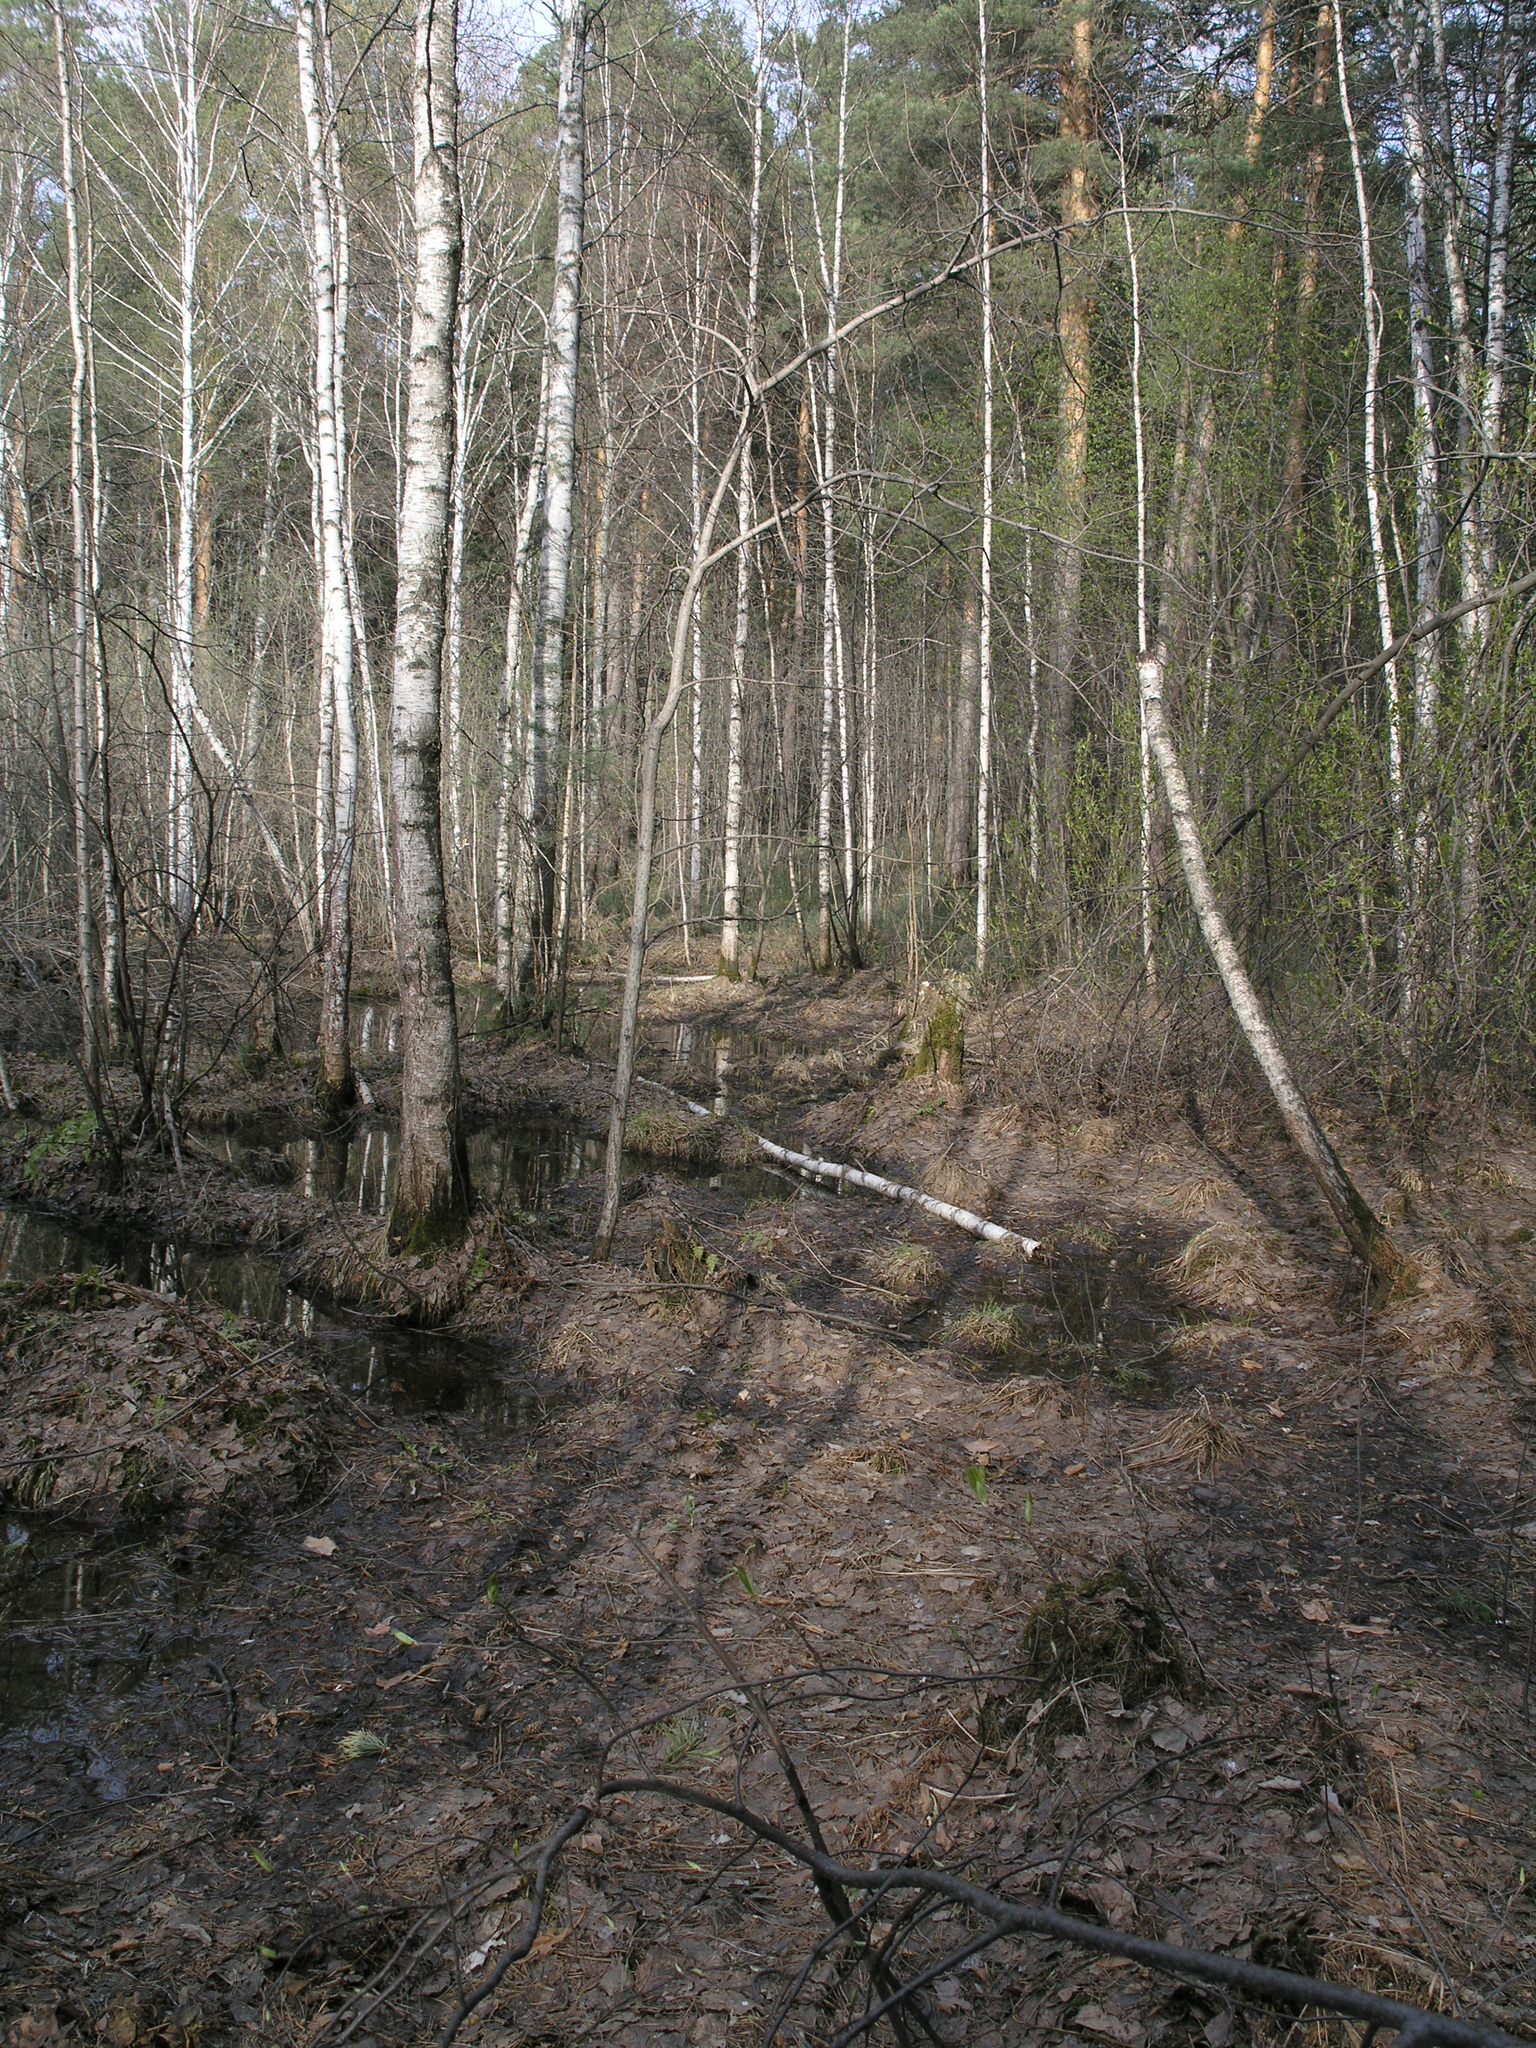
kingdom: Plantae
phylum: Tracheophyta
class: Polypodiopsida
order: Ophioglossales
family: Ophioglossaceae
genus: Sceptridium
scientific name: Sceptridium multifidum
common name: Leathery grape fern
